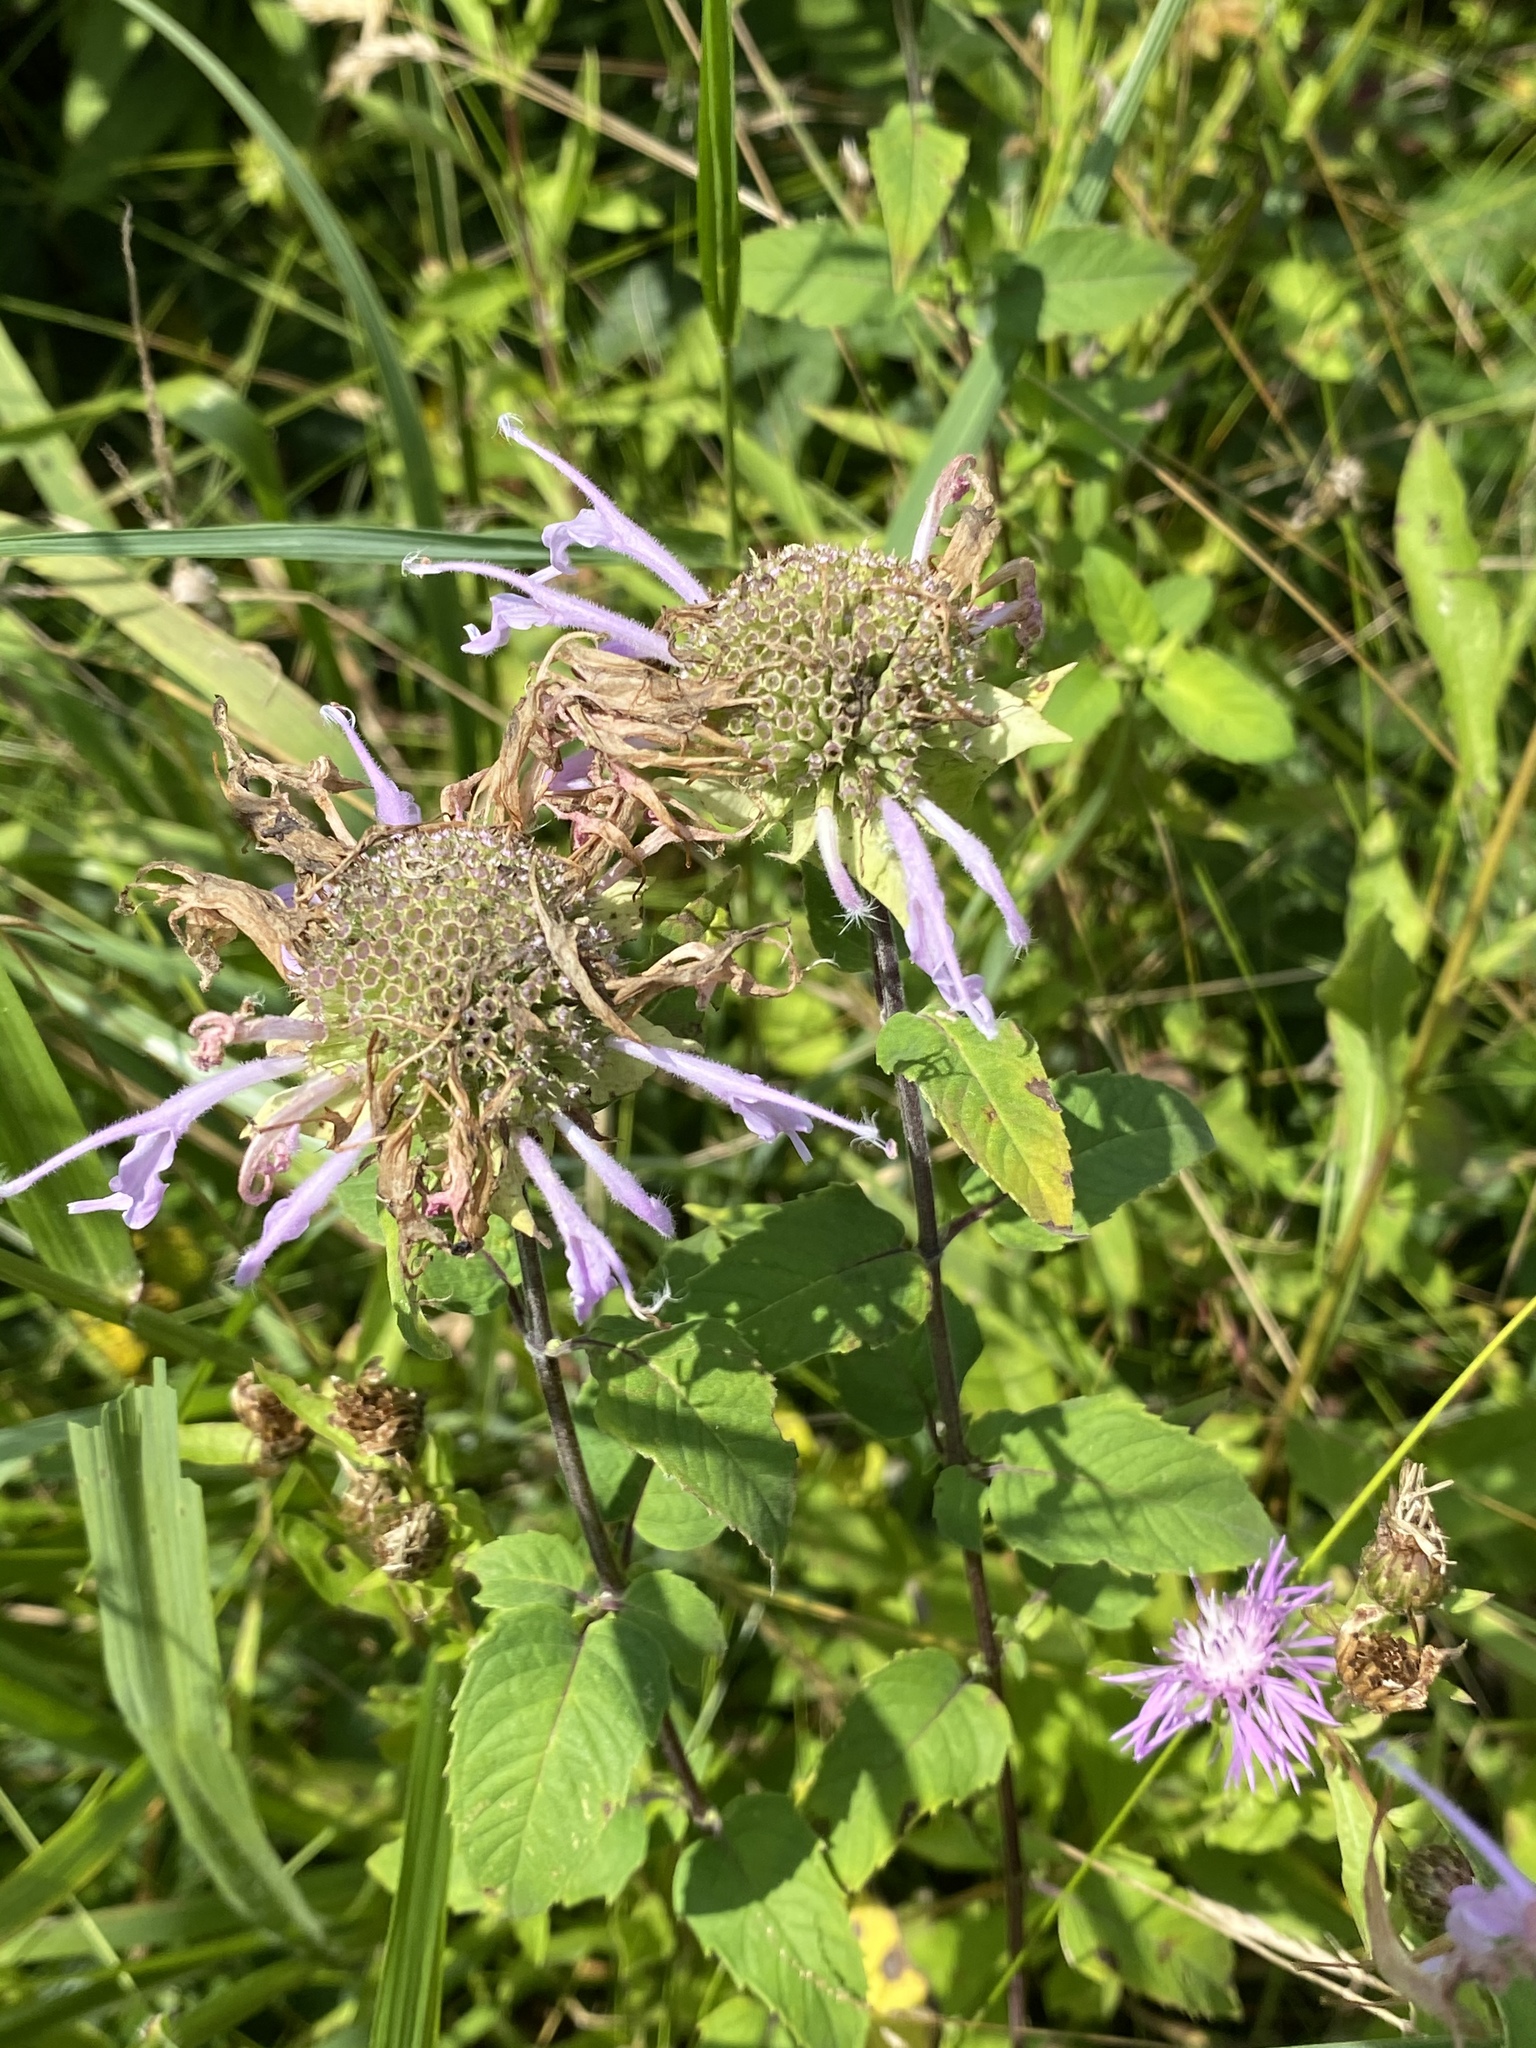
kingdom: Plantae
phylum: Tracheophyta
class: Magnoliopsida
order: Lamiales
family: Lamiaceae
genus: Monarda
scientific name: Monarda fistulosa
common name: Purple beebalm
